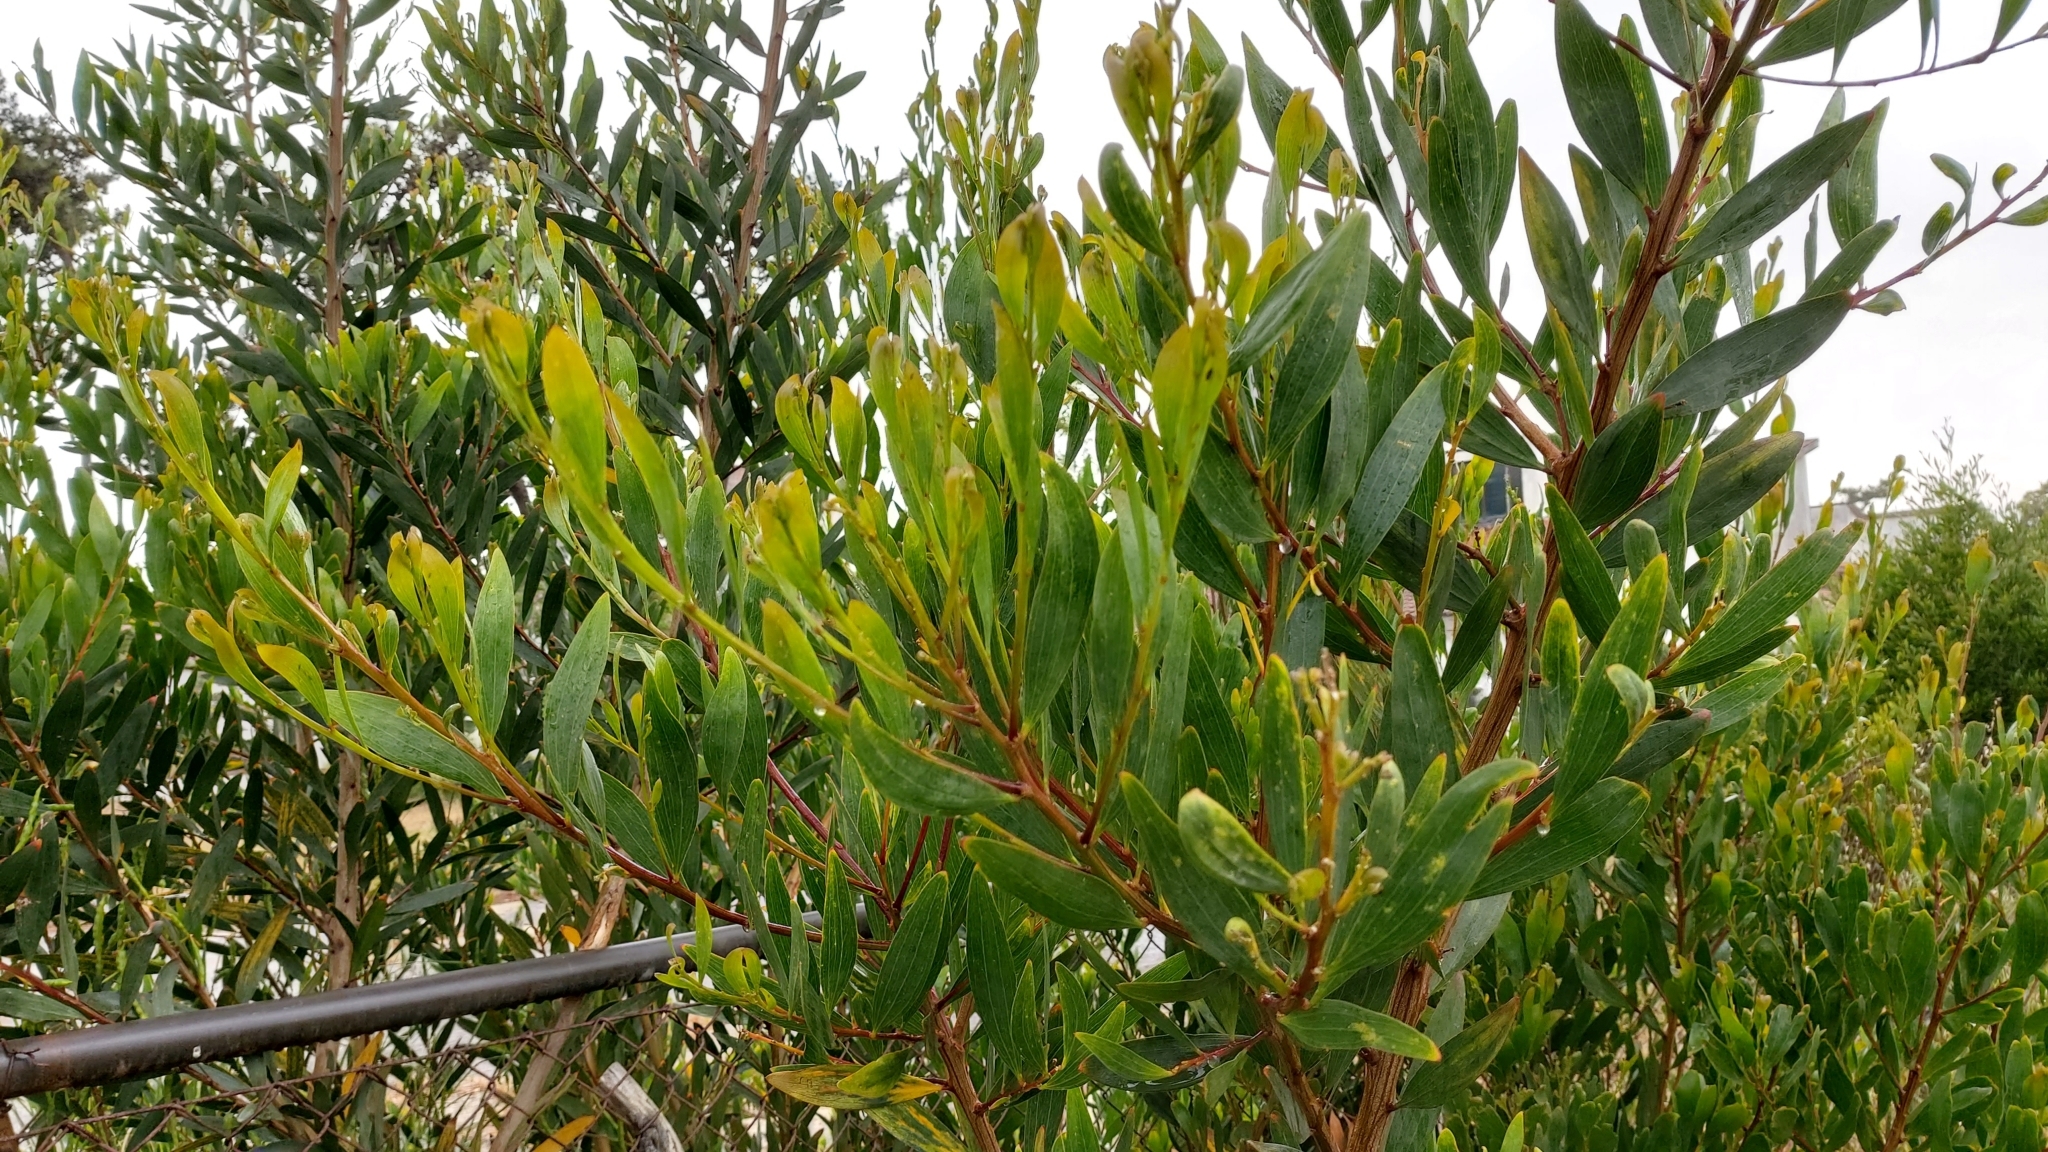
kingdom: Plantae
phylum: Tracheophyta
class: Magnoliopsida
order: Fabales
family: Fabaceae
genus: Acacia
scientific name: Acacia longifolia
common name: Sydney golden wattle
